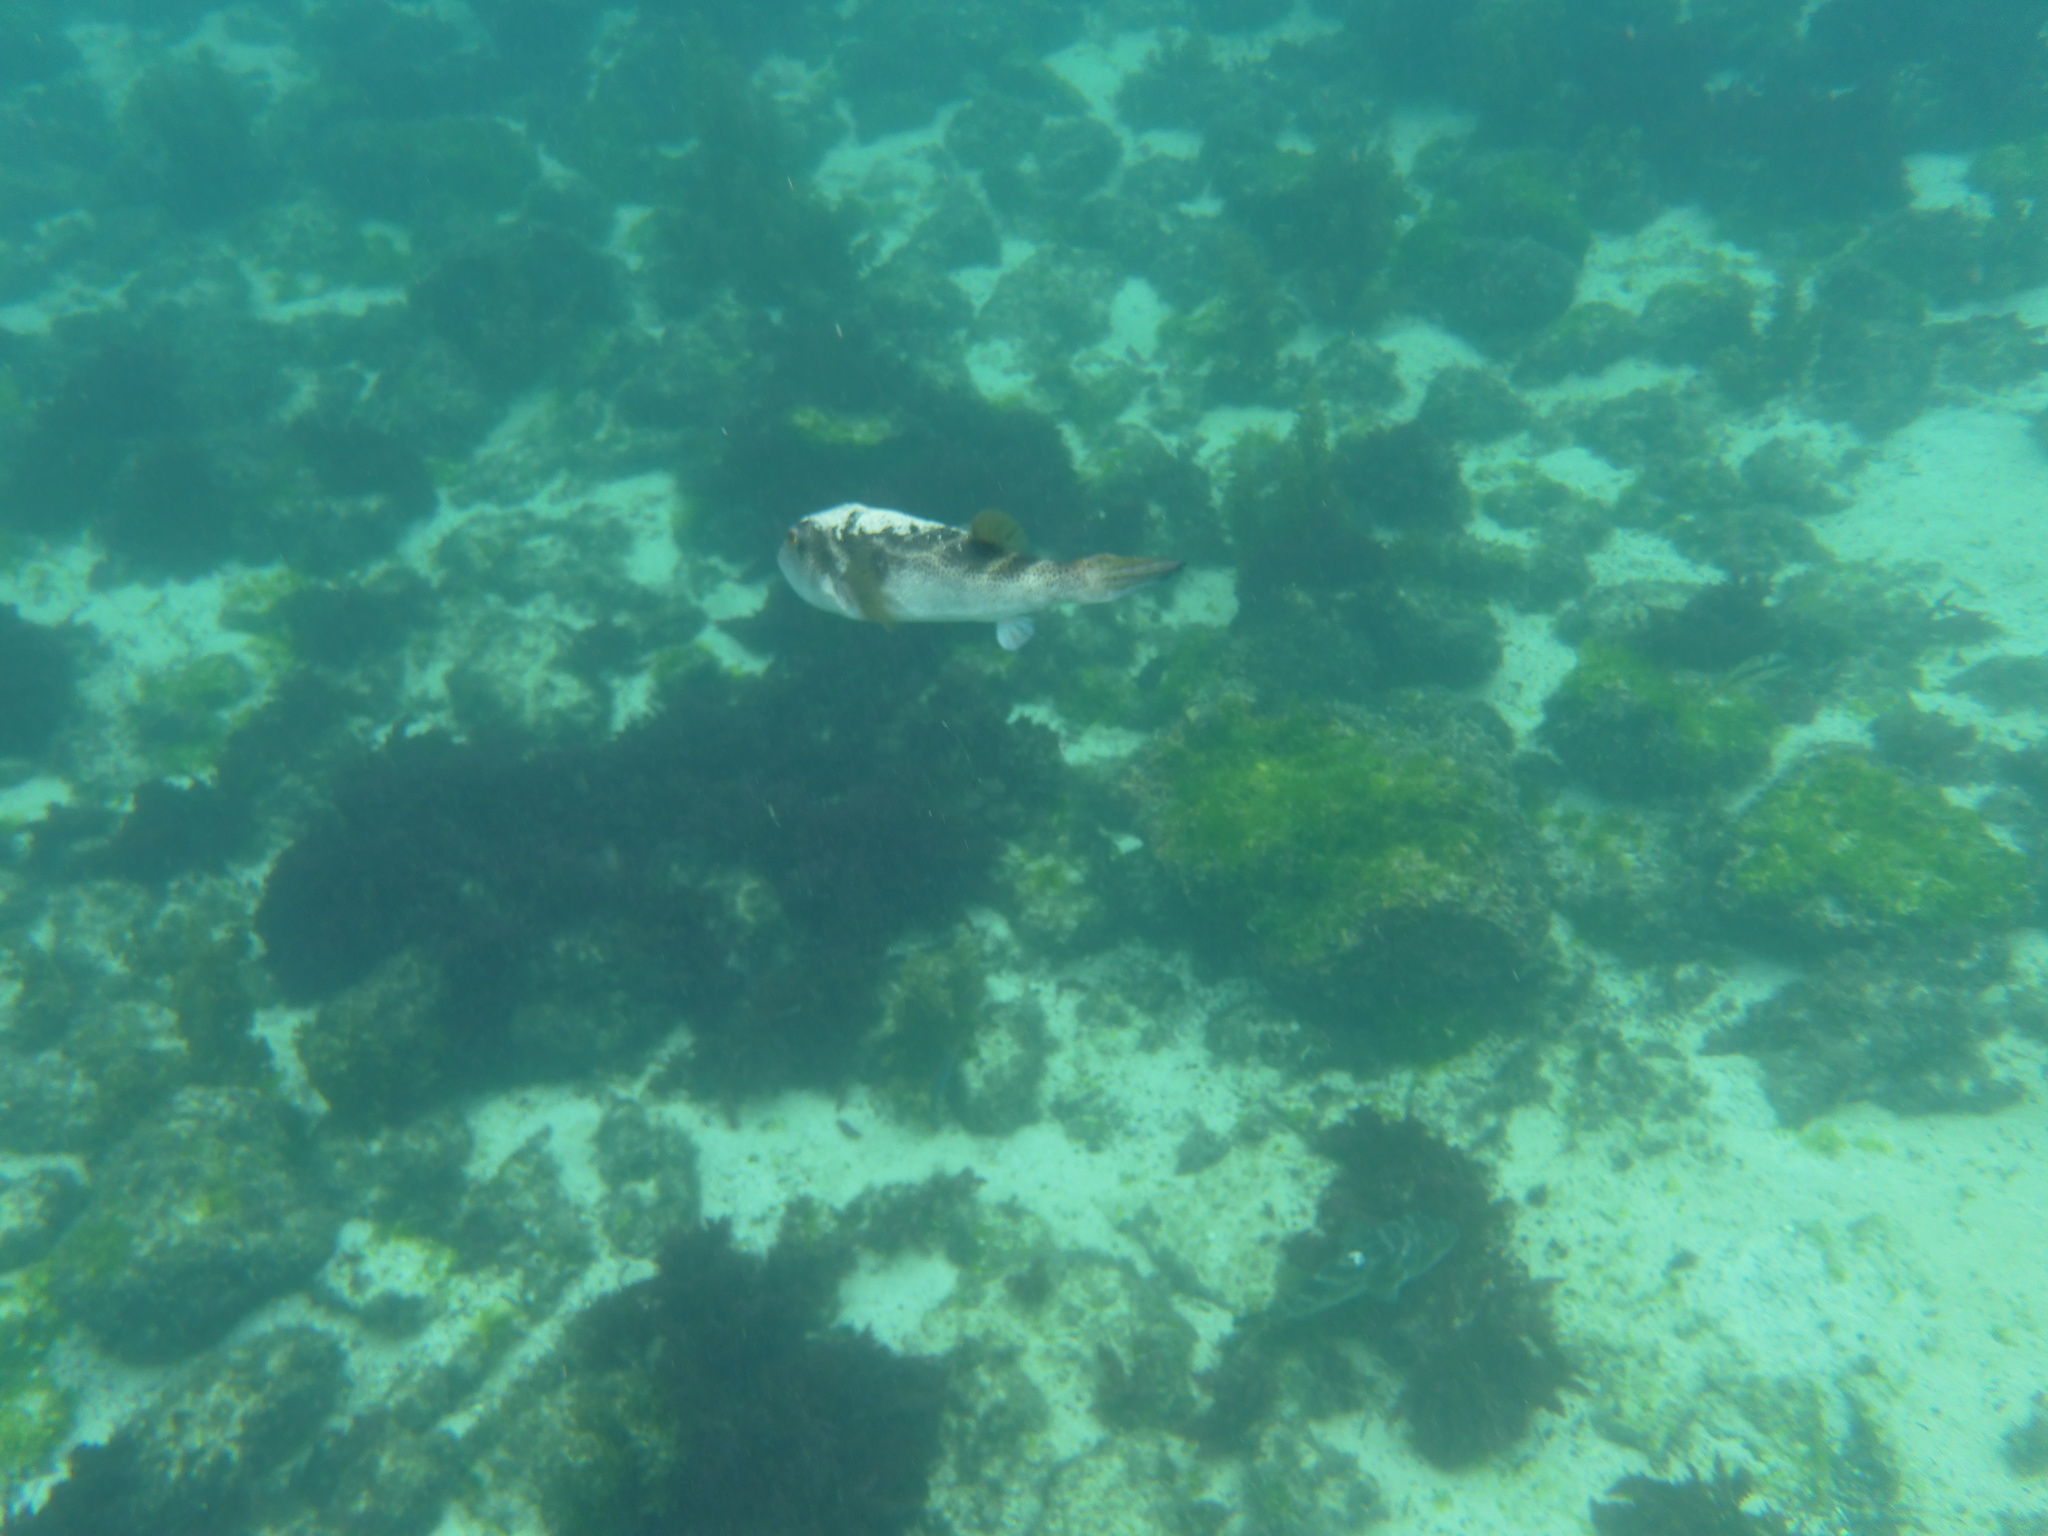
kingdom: Animalia
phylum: Chordata
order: Tetraodontiformes
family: Tetraodontidae
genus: Sphoeroides
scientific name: Sphoeroides annulatus
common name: Bullseye puffer
